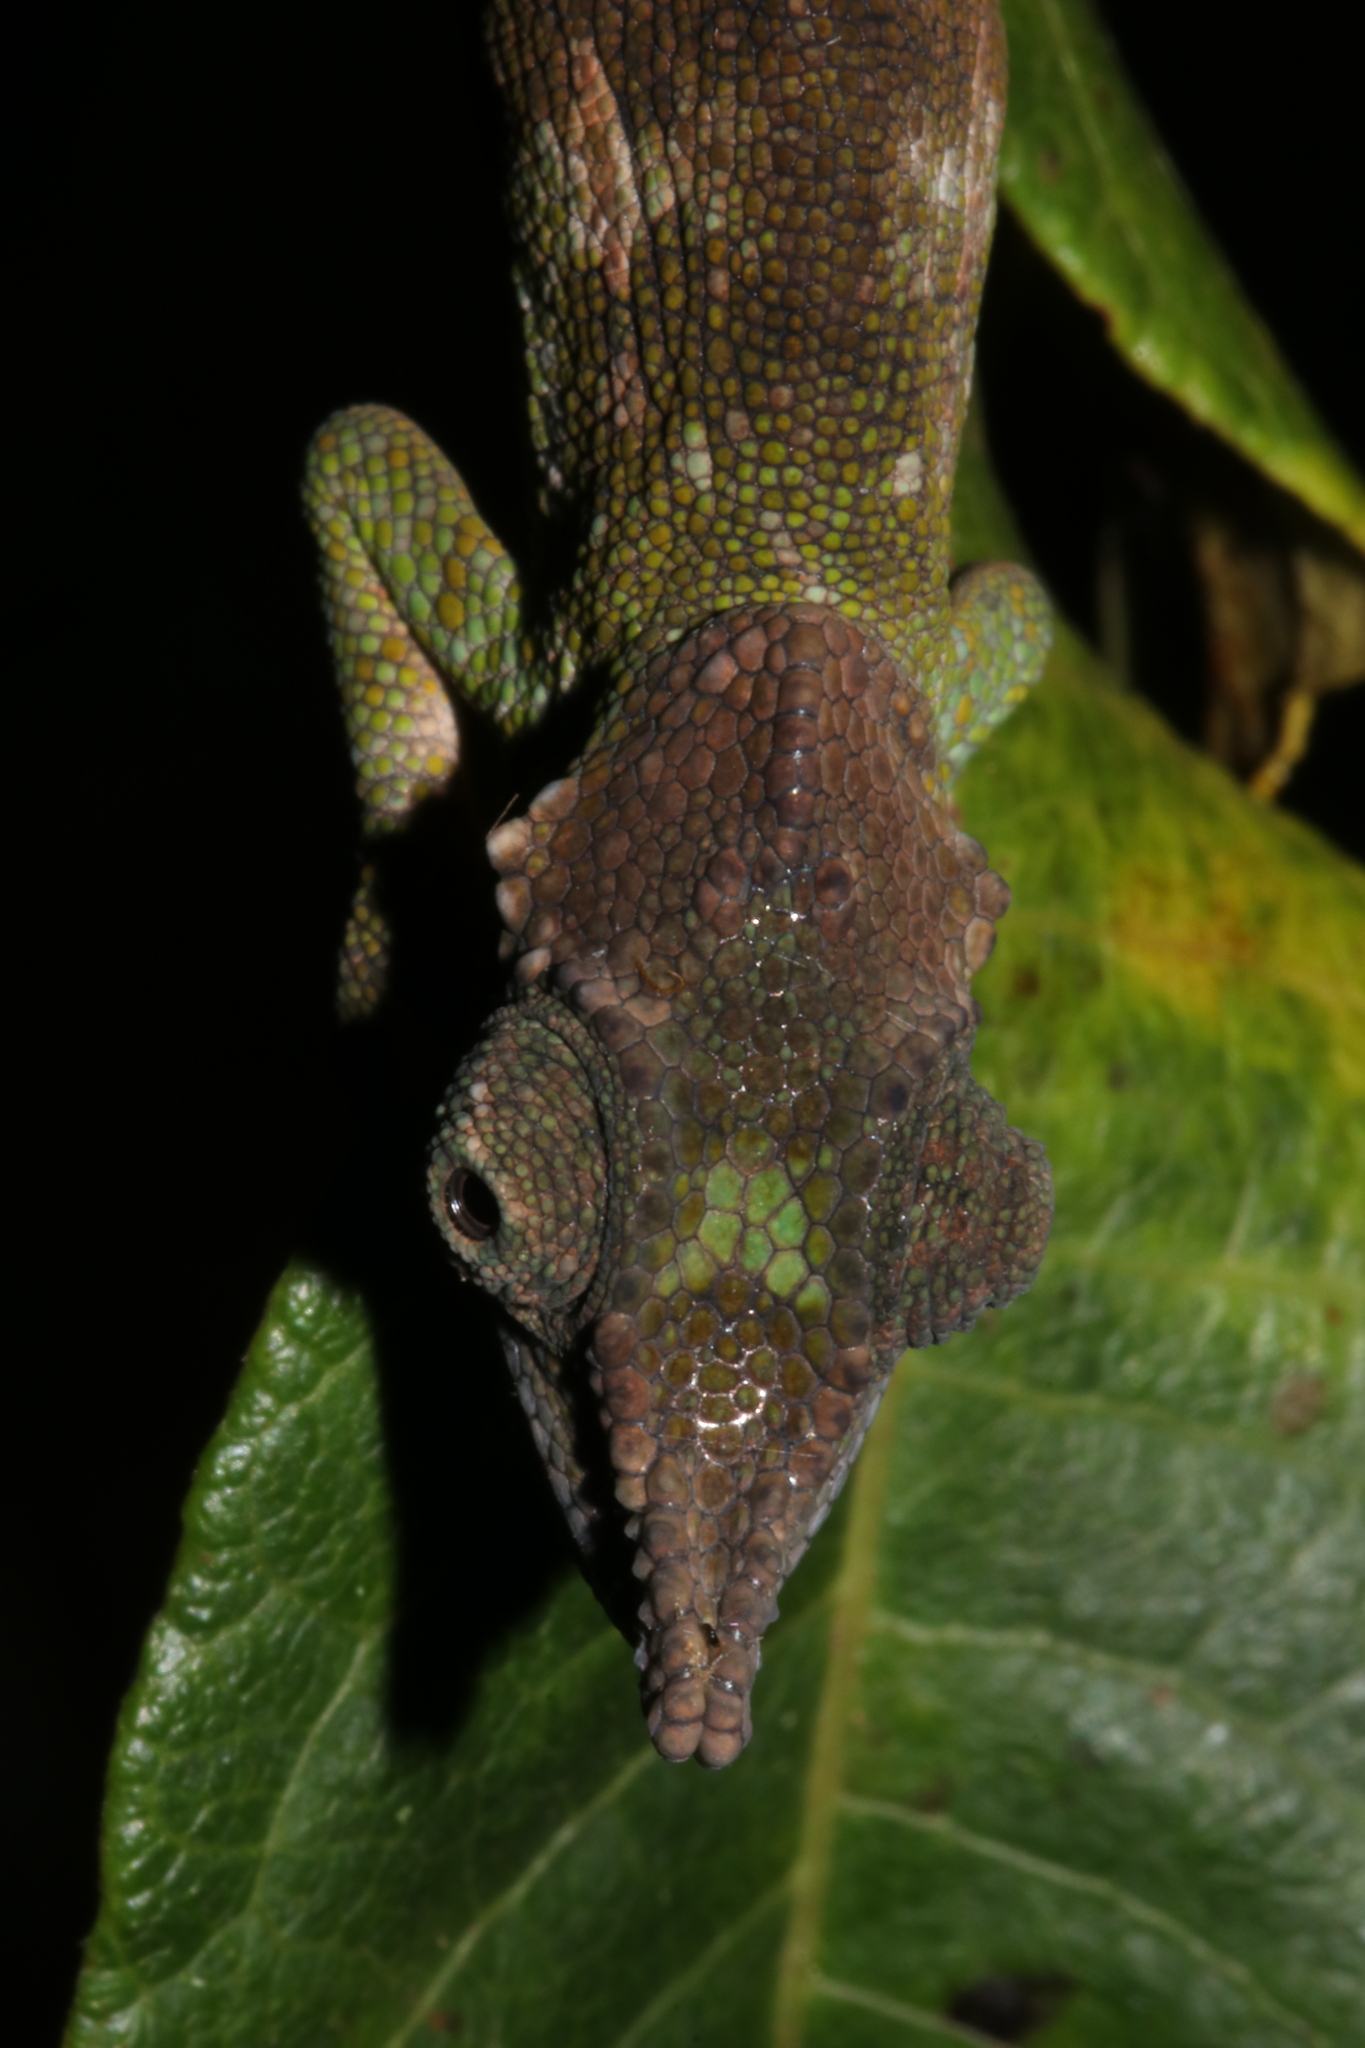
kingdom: Animalia
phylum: Chordata
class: Squamata
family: Chamaeleonidae
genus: Kinyongia
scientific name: Kinyongia msuyae
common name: Msuya’s forest chameleon
